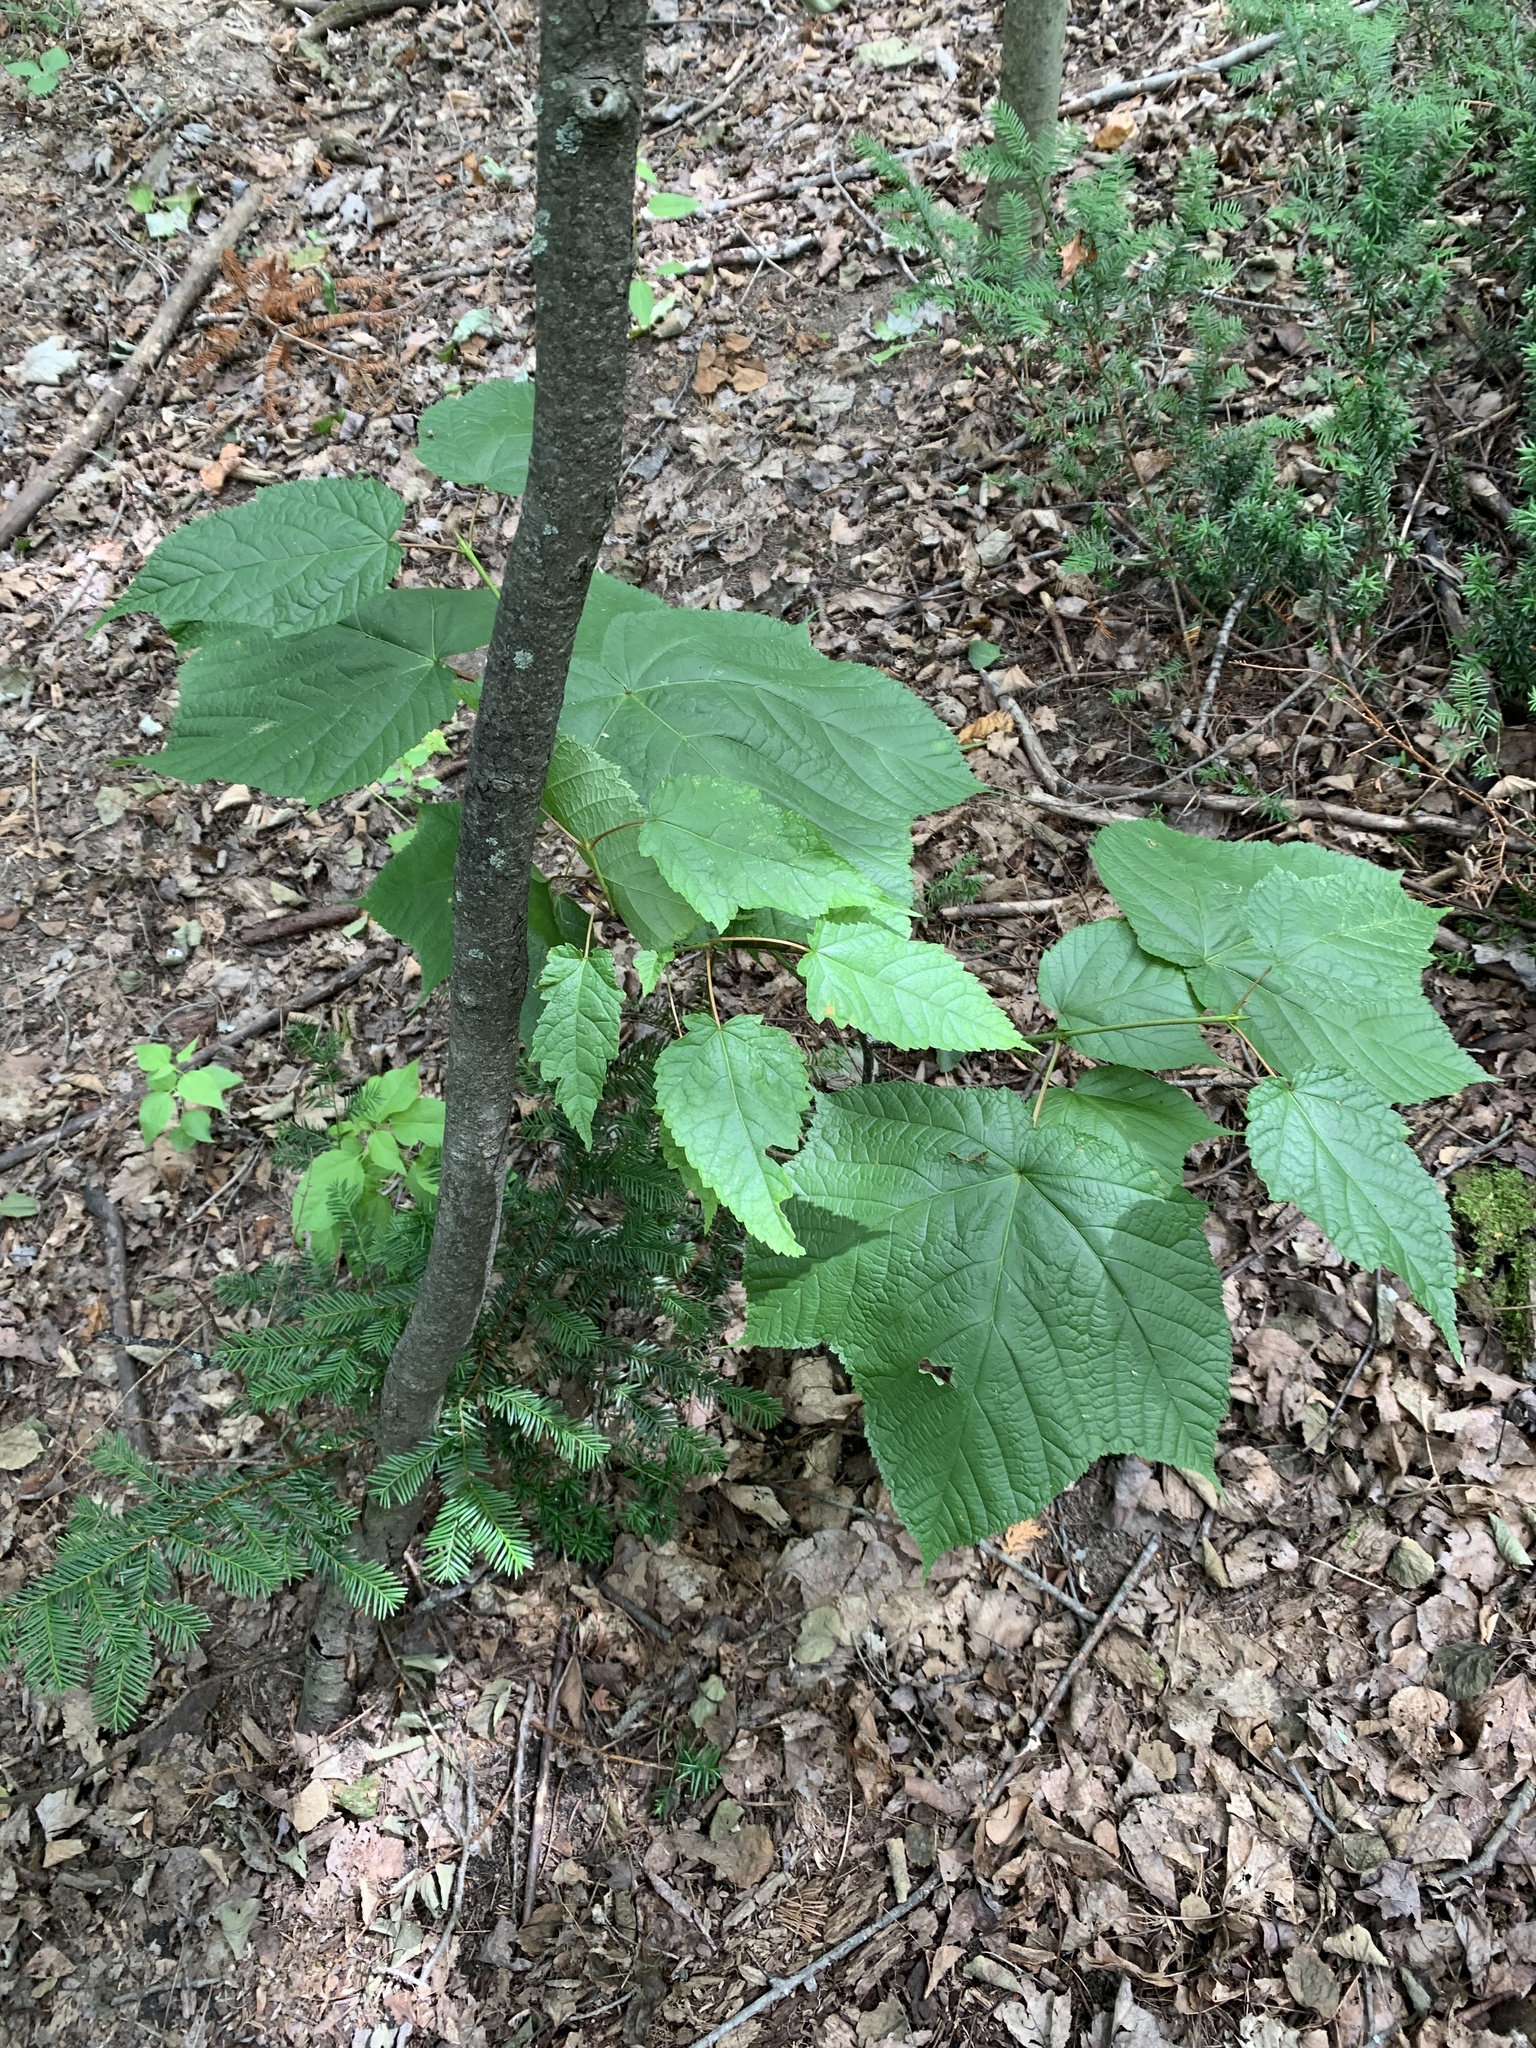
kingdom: Plantae
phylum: Tracheophyta
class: Magnoliopsida
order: Sapindales
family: Sapindaceae
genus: Acer
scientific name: Acer pensylvanicum
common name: Moosewood
